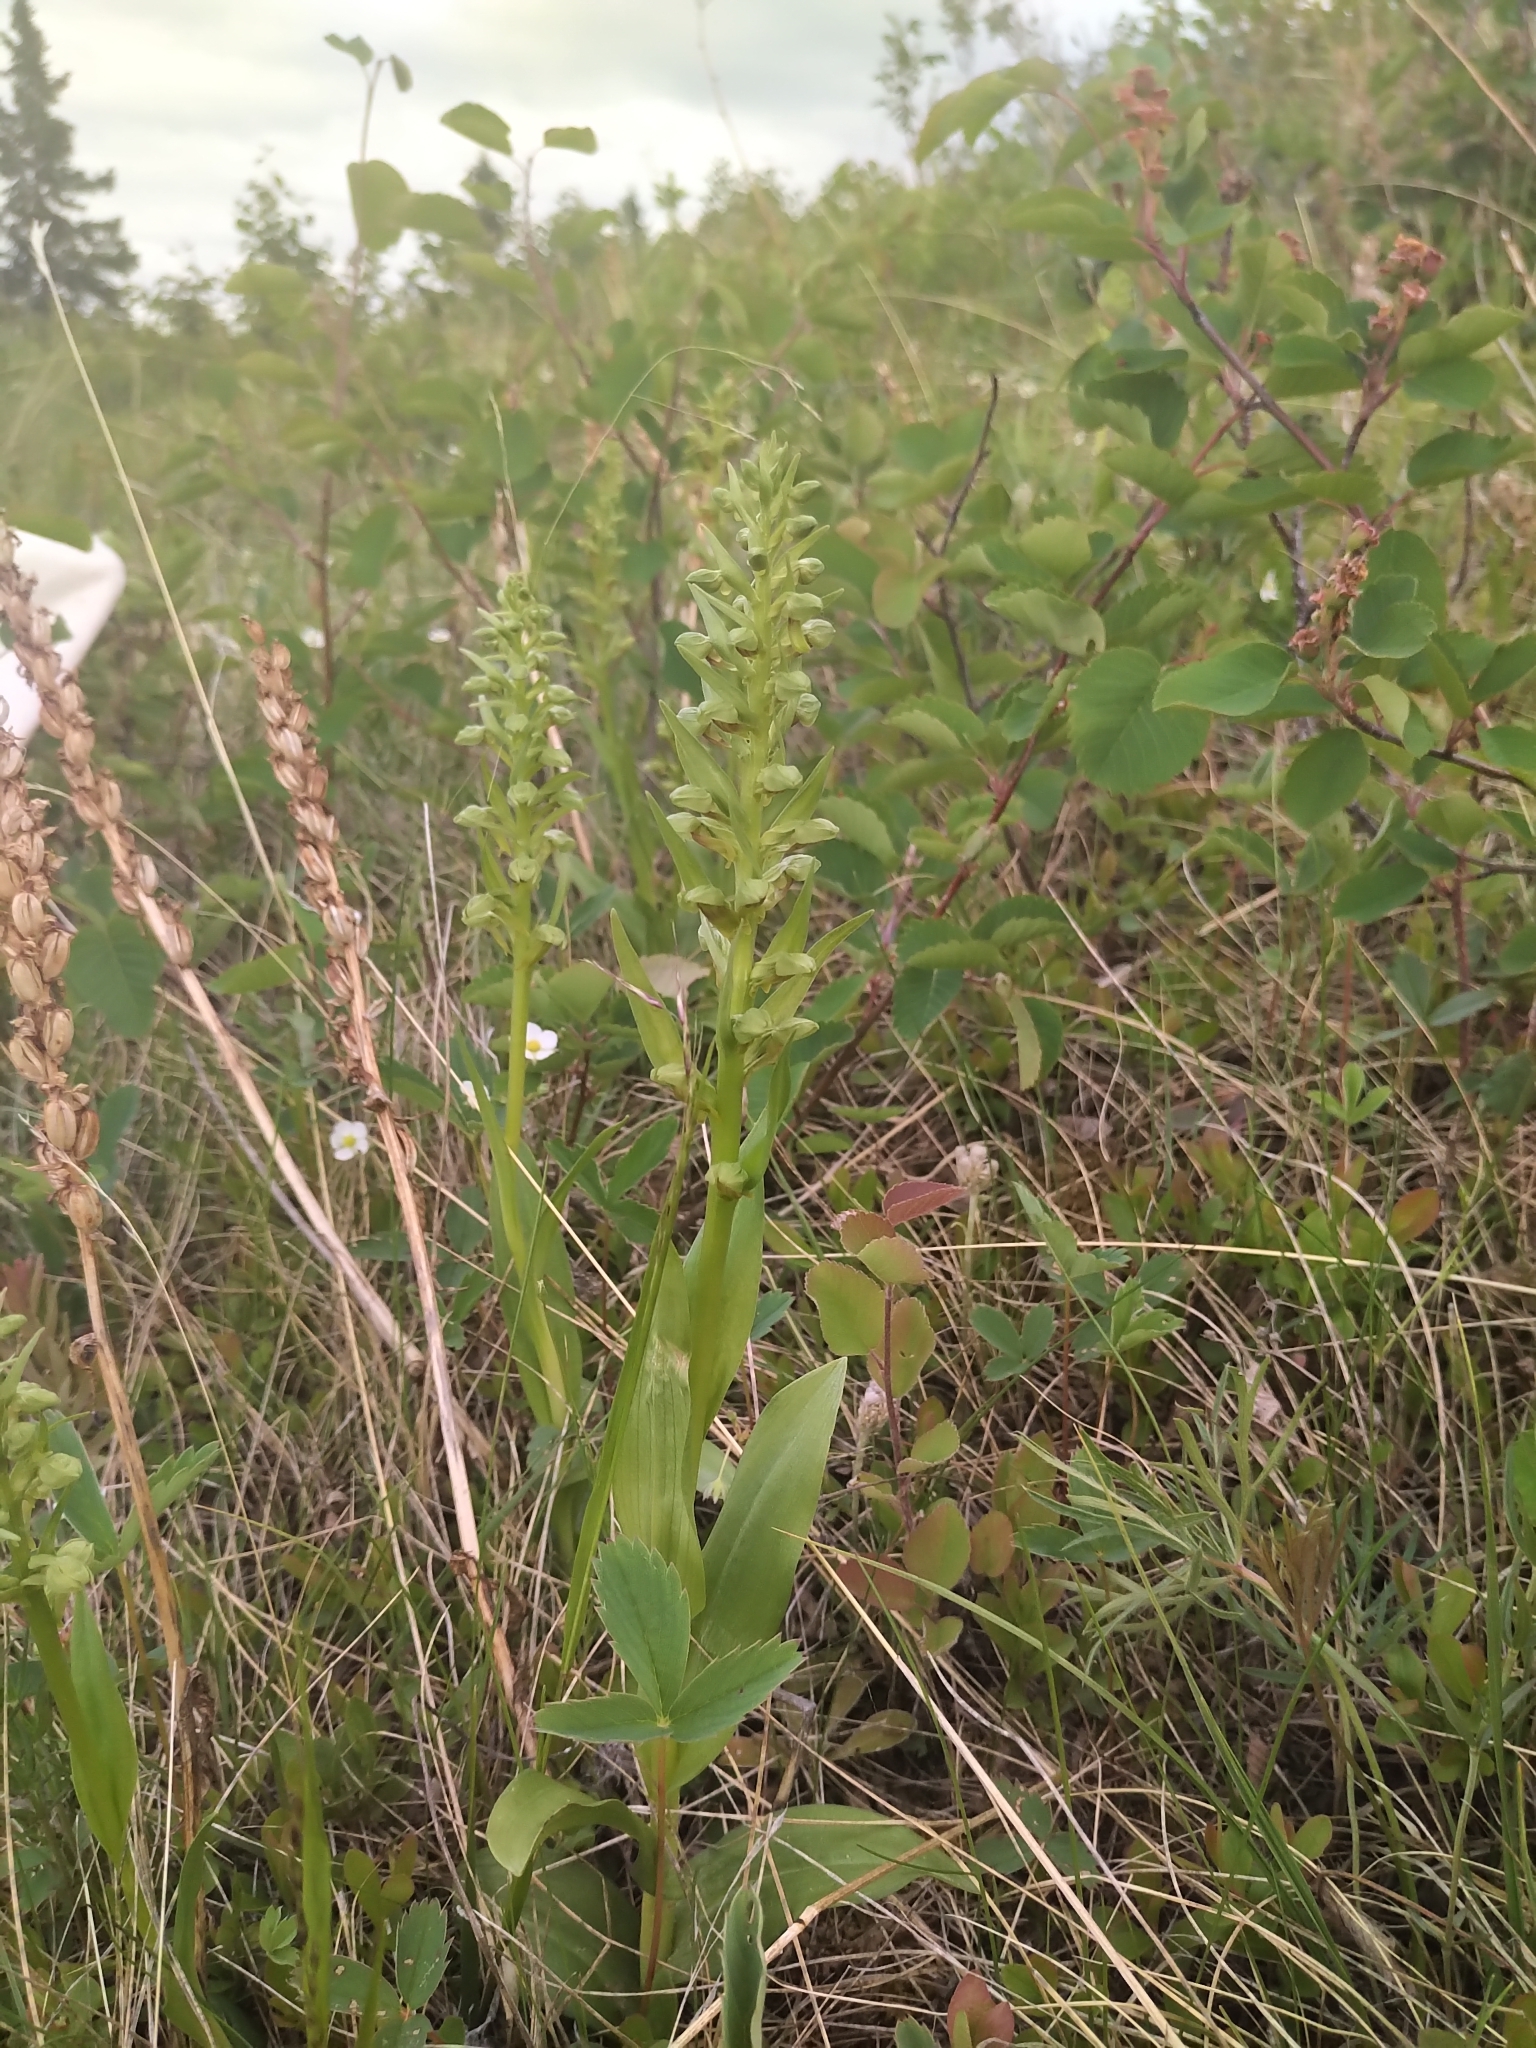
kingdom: Plantae
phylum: Tracheophyta
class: Liliopsida
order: Asparagales
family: Orchidaceae
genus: Dactylorhiza
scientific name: Dactylorhiza viridis
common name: Longbract frog orchid
